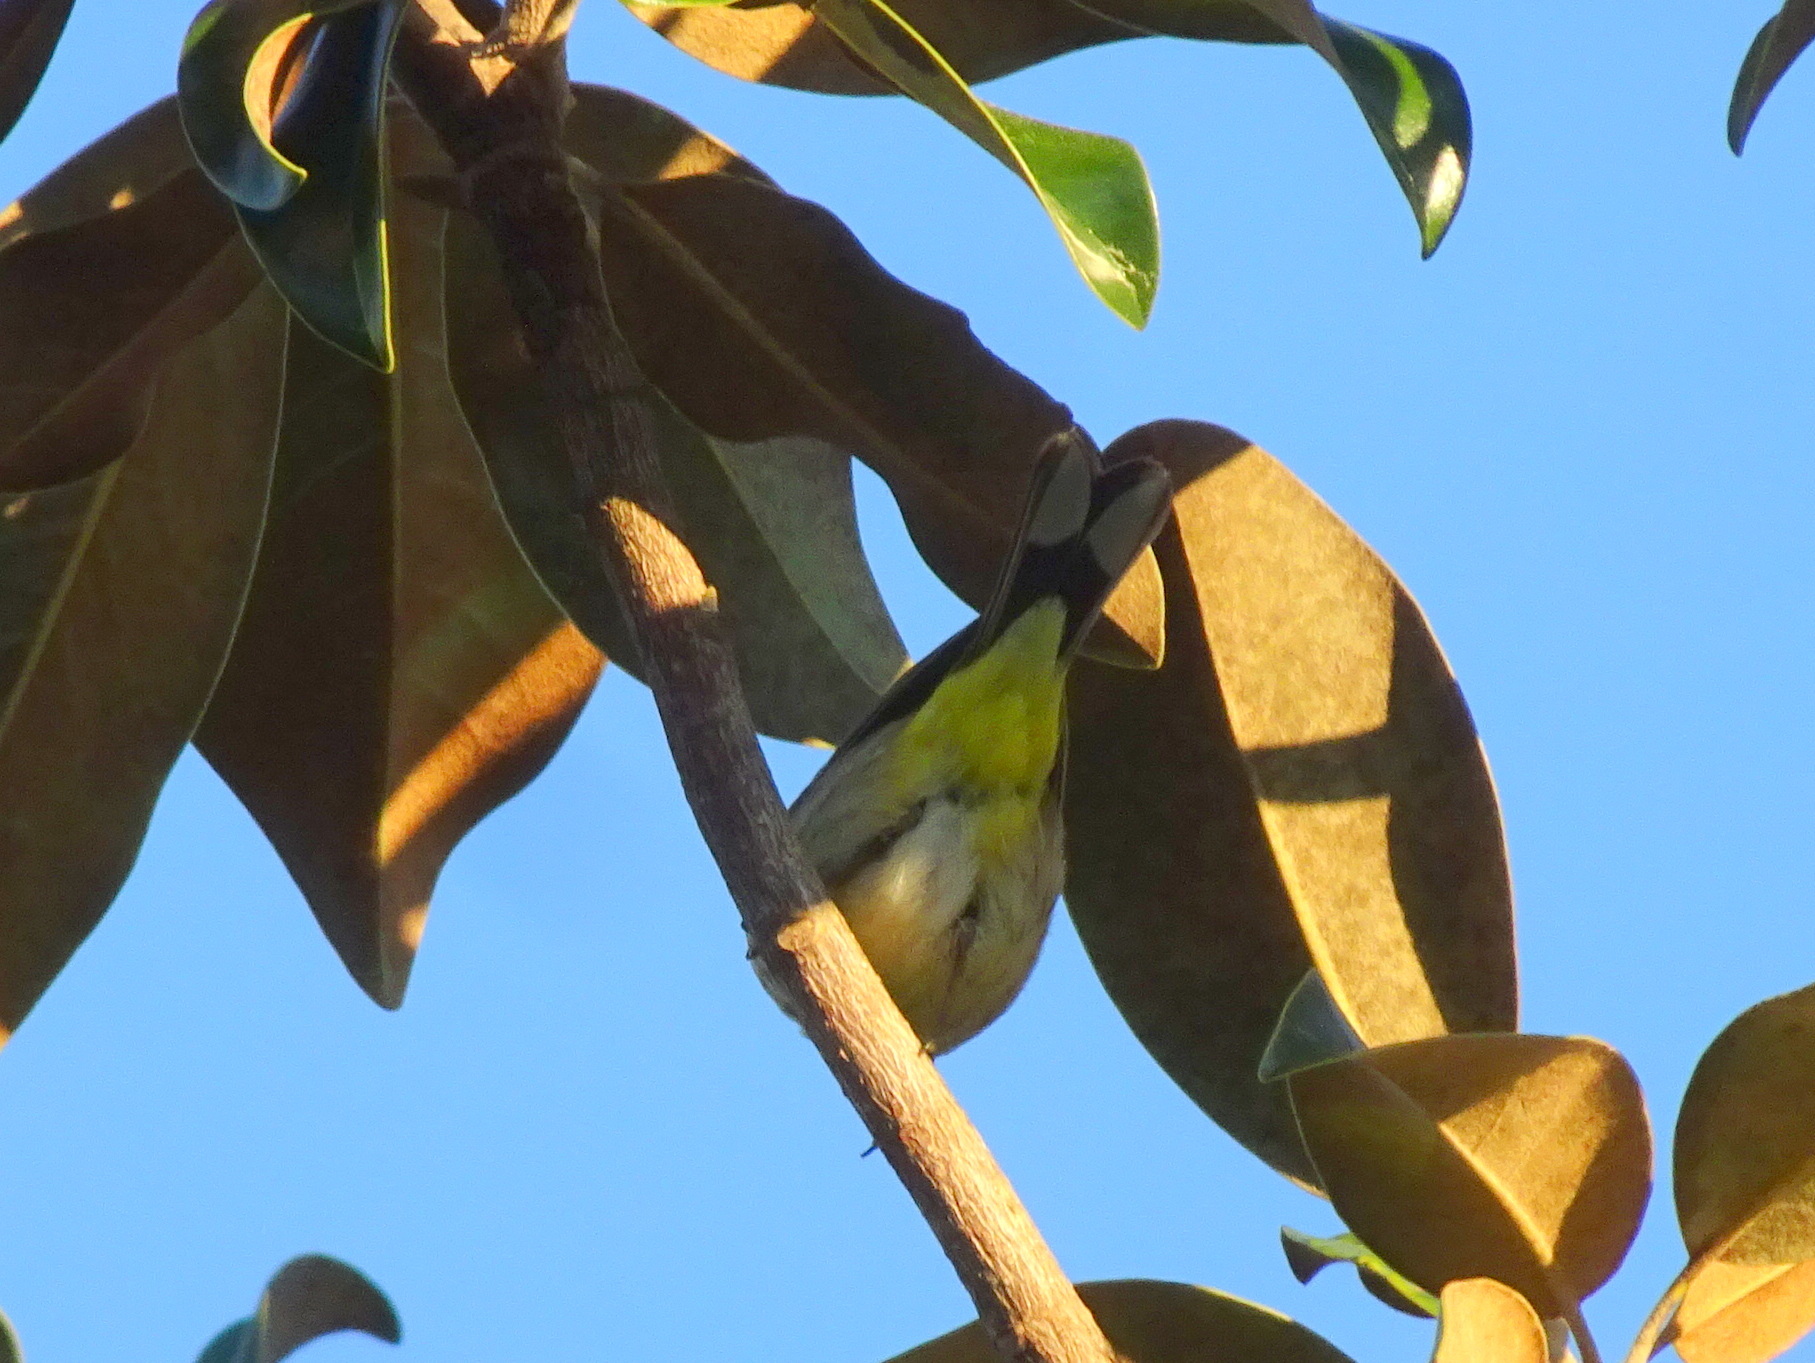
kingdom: Animalia
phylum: Chordata
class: Aves
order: Passeriformes
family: Parulidae
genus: Setophaga
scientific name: Setophaga palmarum
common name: Palm warbler
